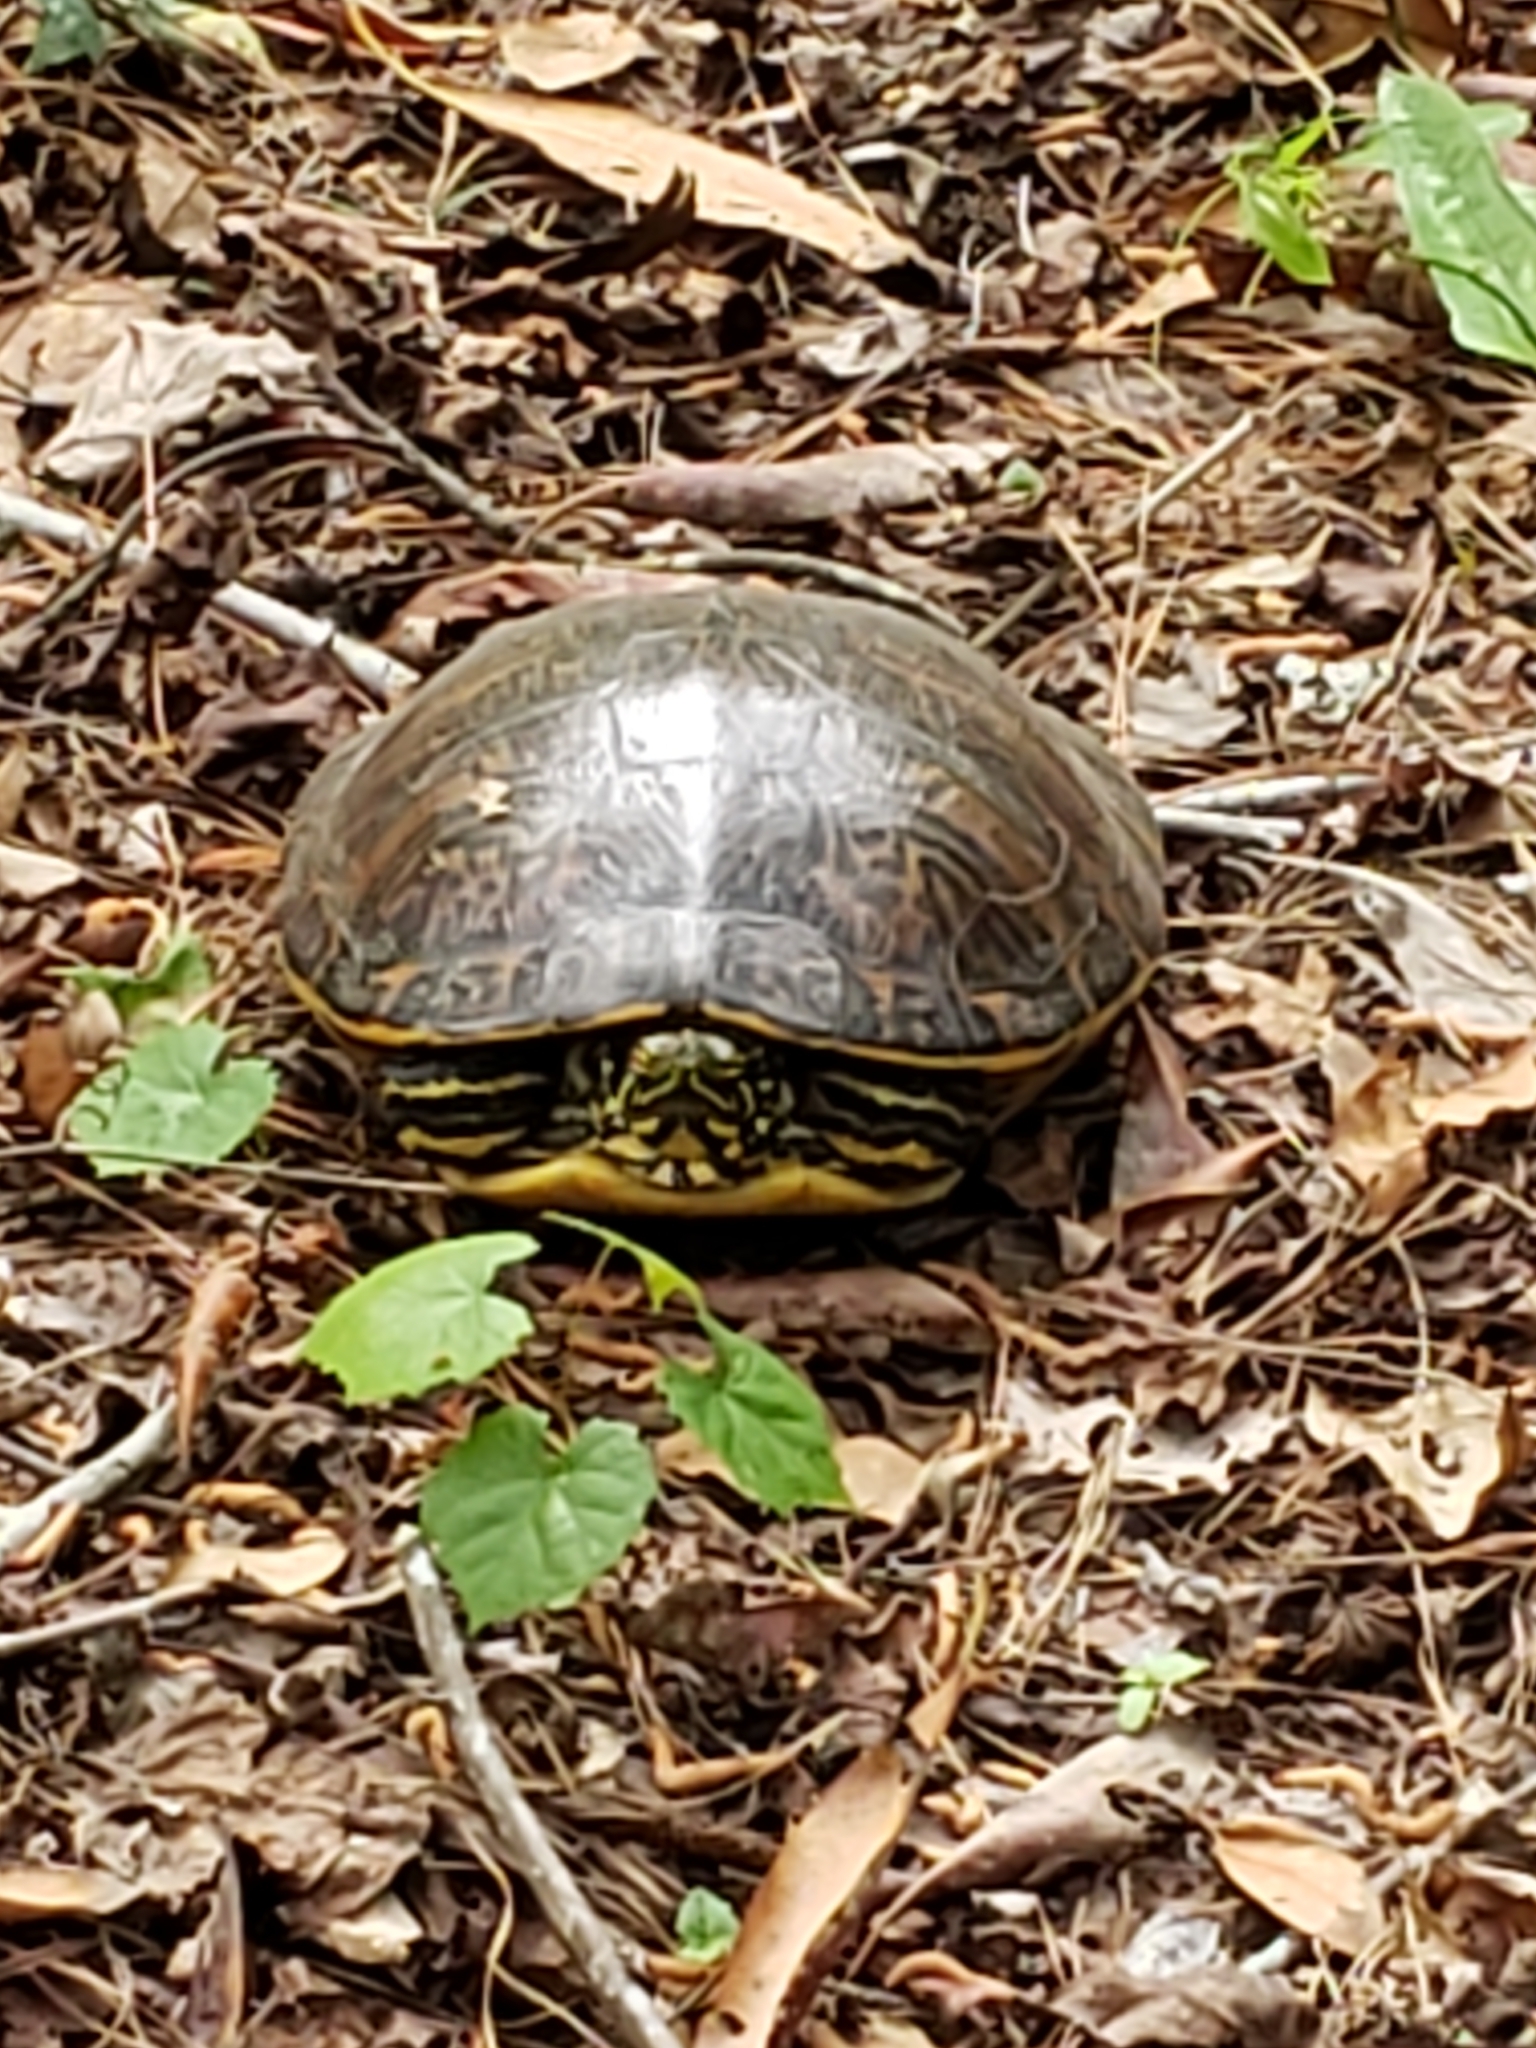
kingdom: Animalia
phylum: Chordata
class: Testudines
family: Emydidae
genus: Trachemys
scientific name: Trachemys scripta
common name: Slider
